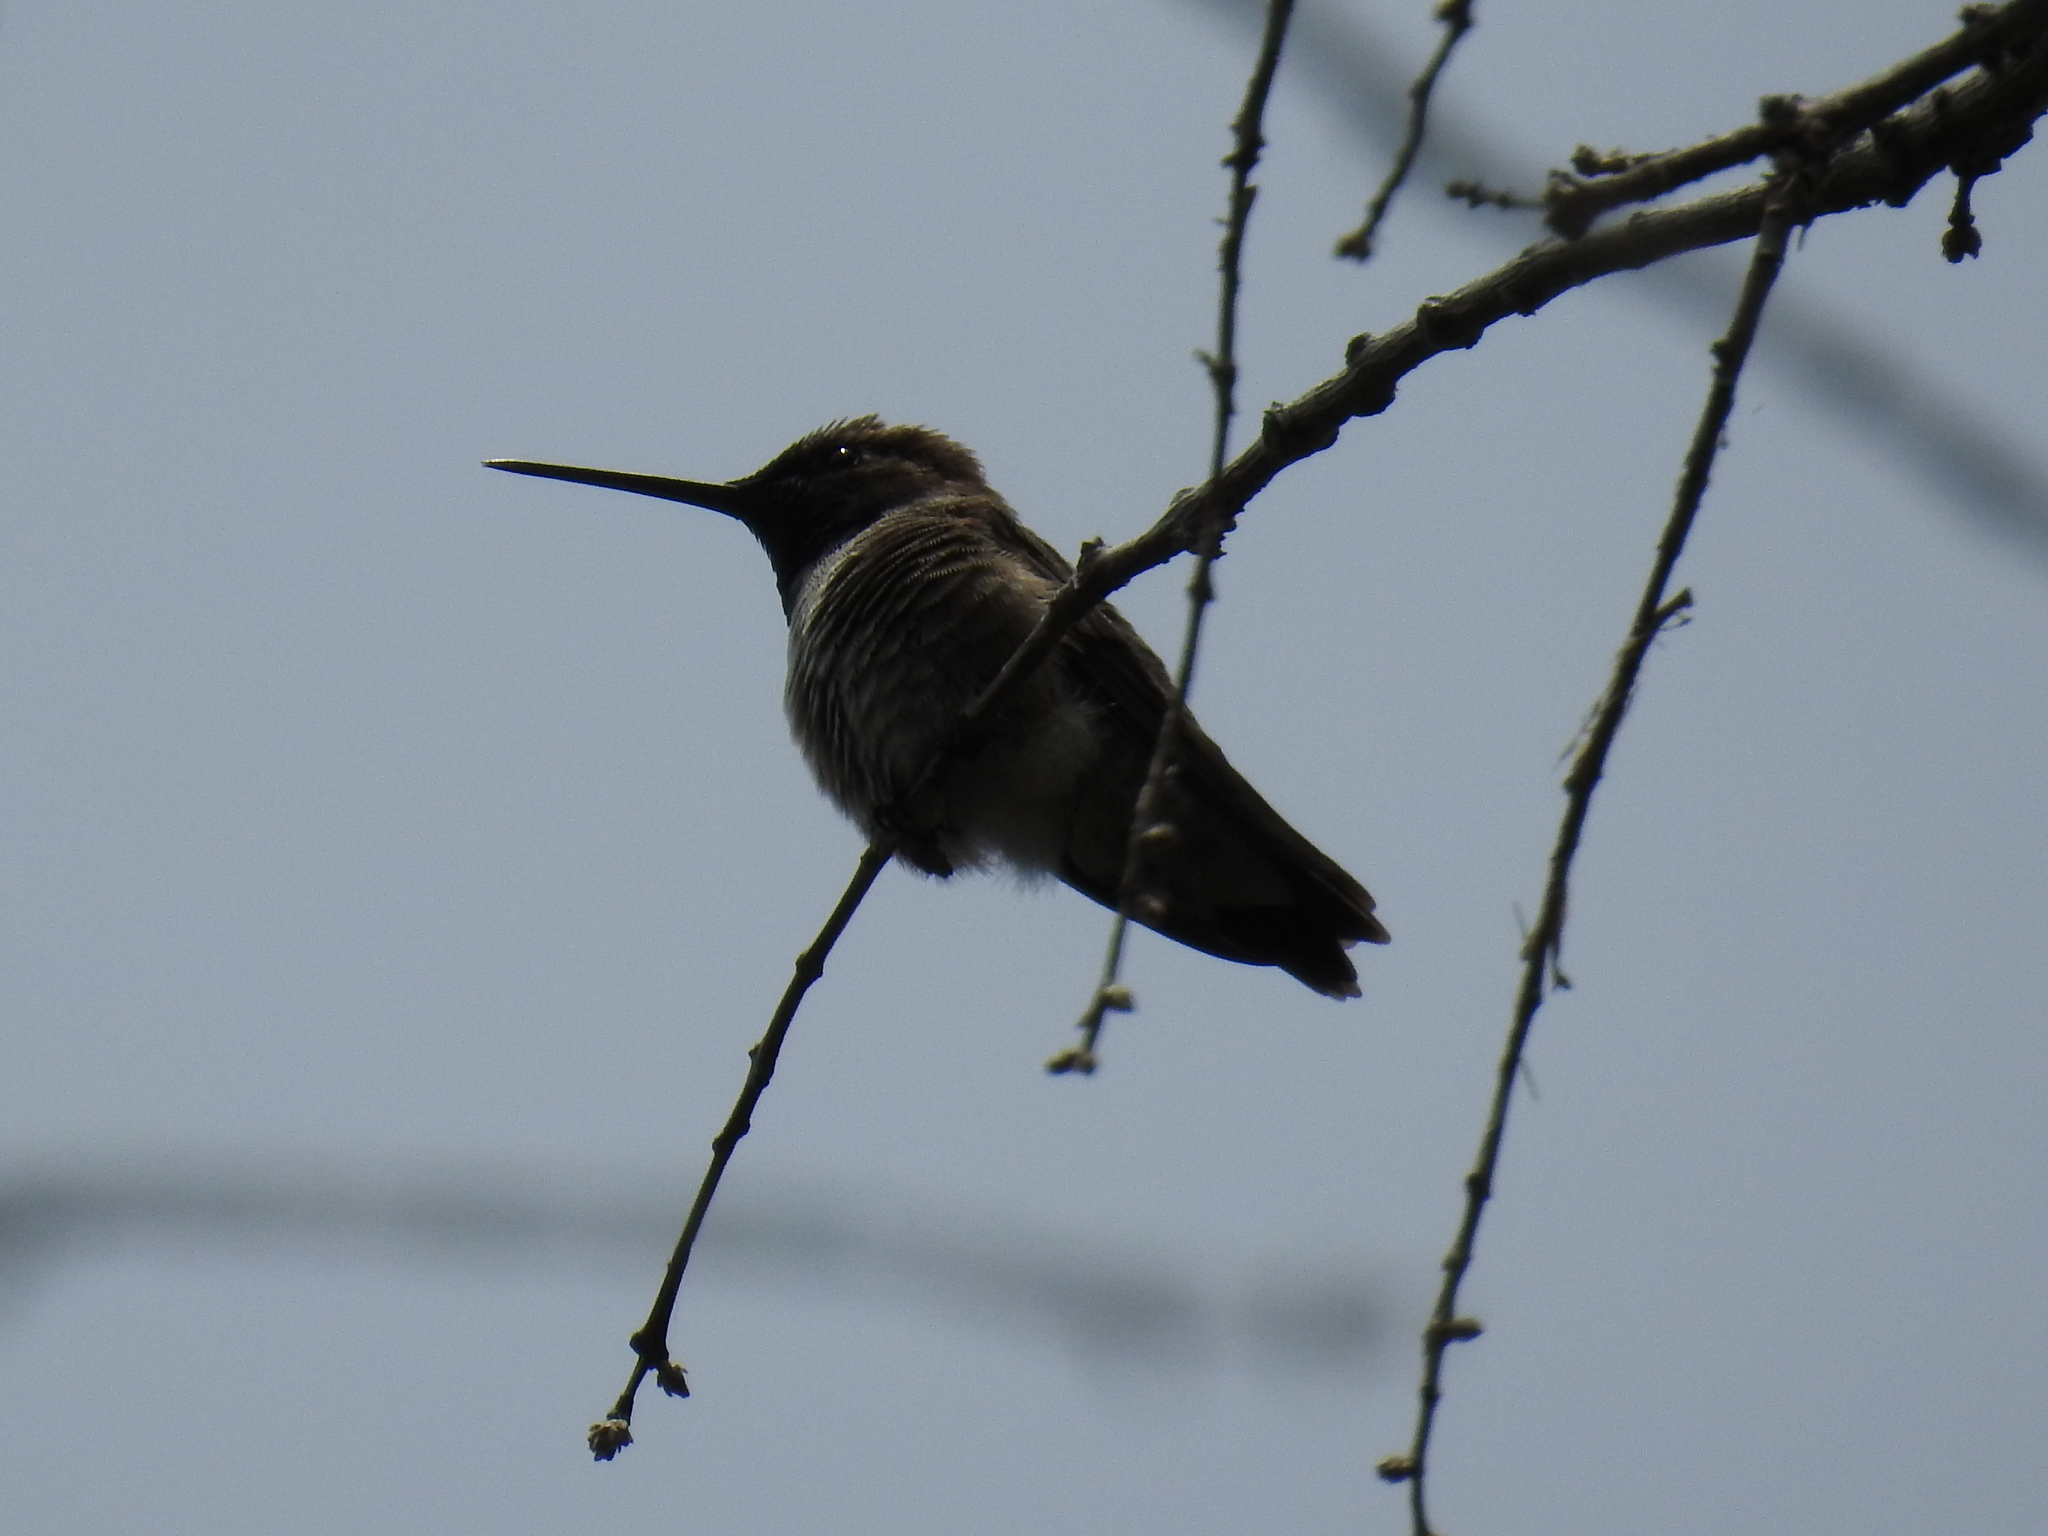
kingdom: Animalia
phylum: Chordata
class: Aves
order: Apodiformes
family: Trochilidae
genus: Archilochus
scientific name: Archilochus alexandri
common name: Black-chinned hummingbird
